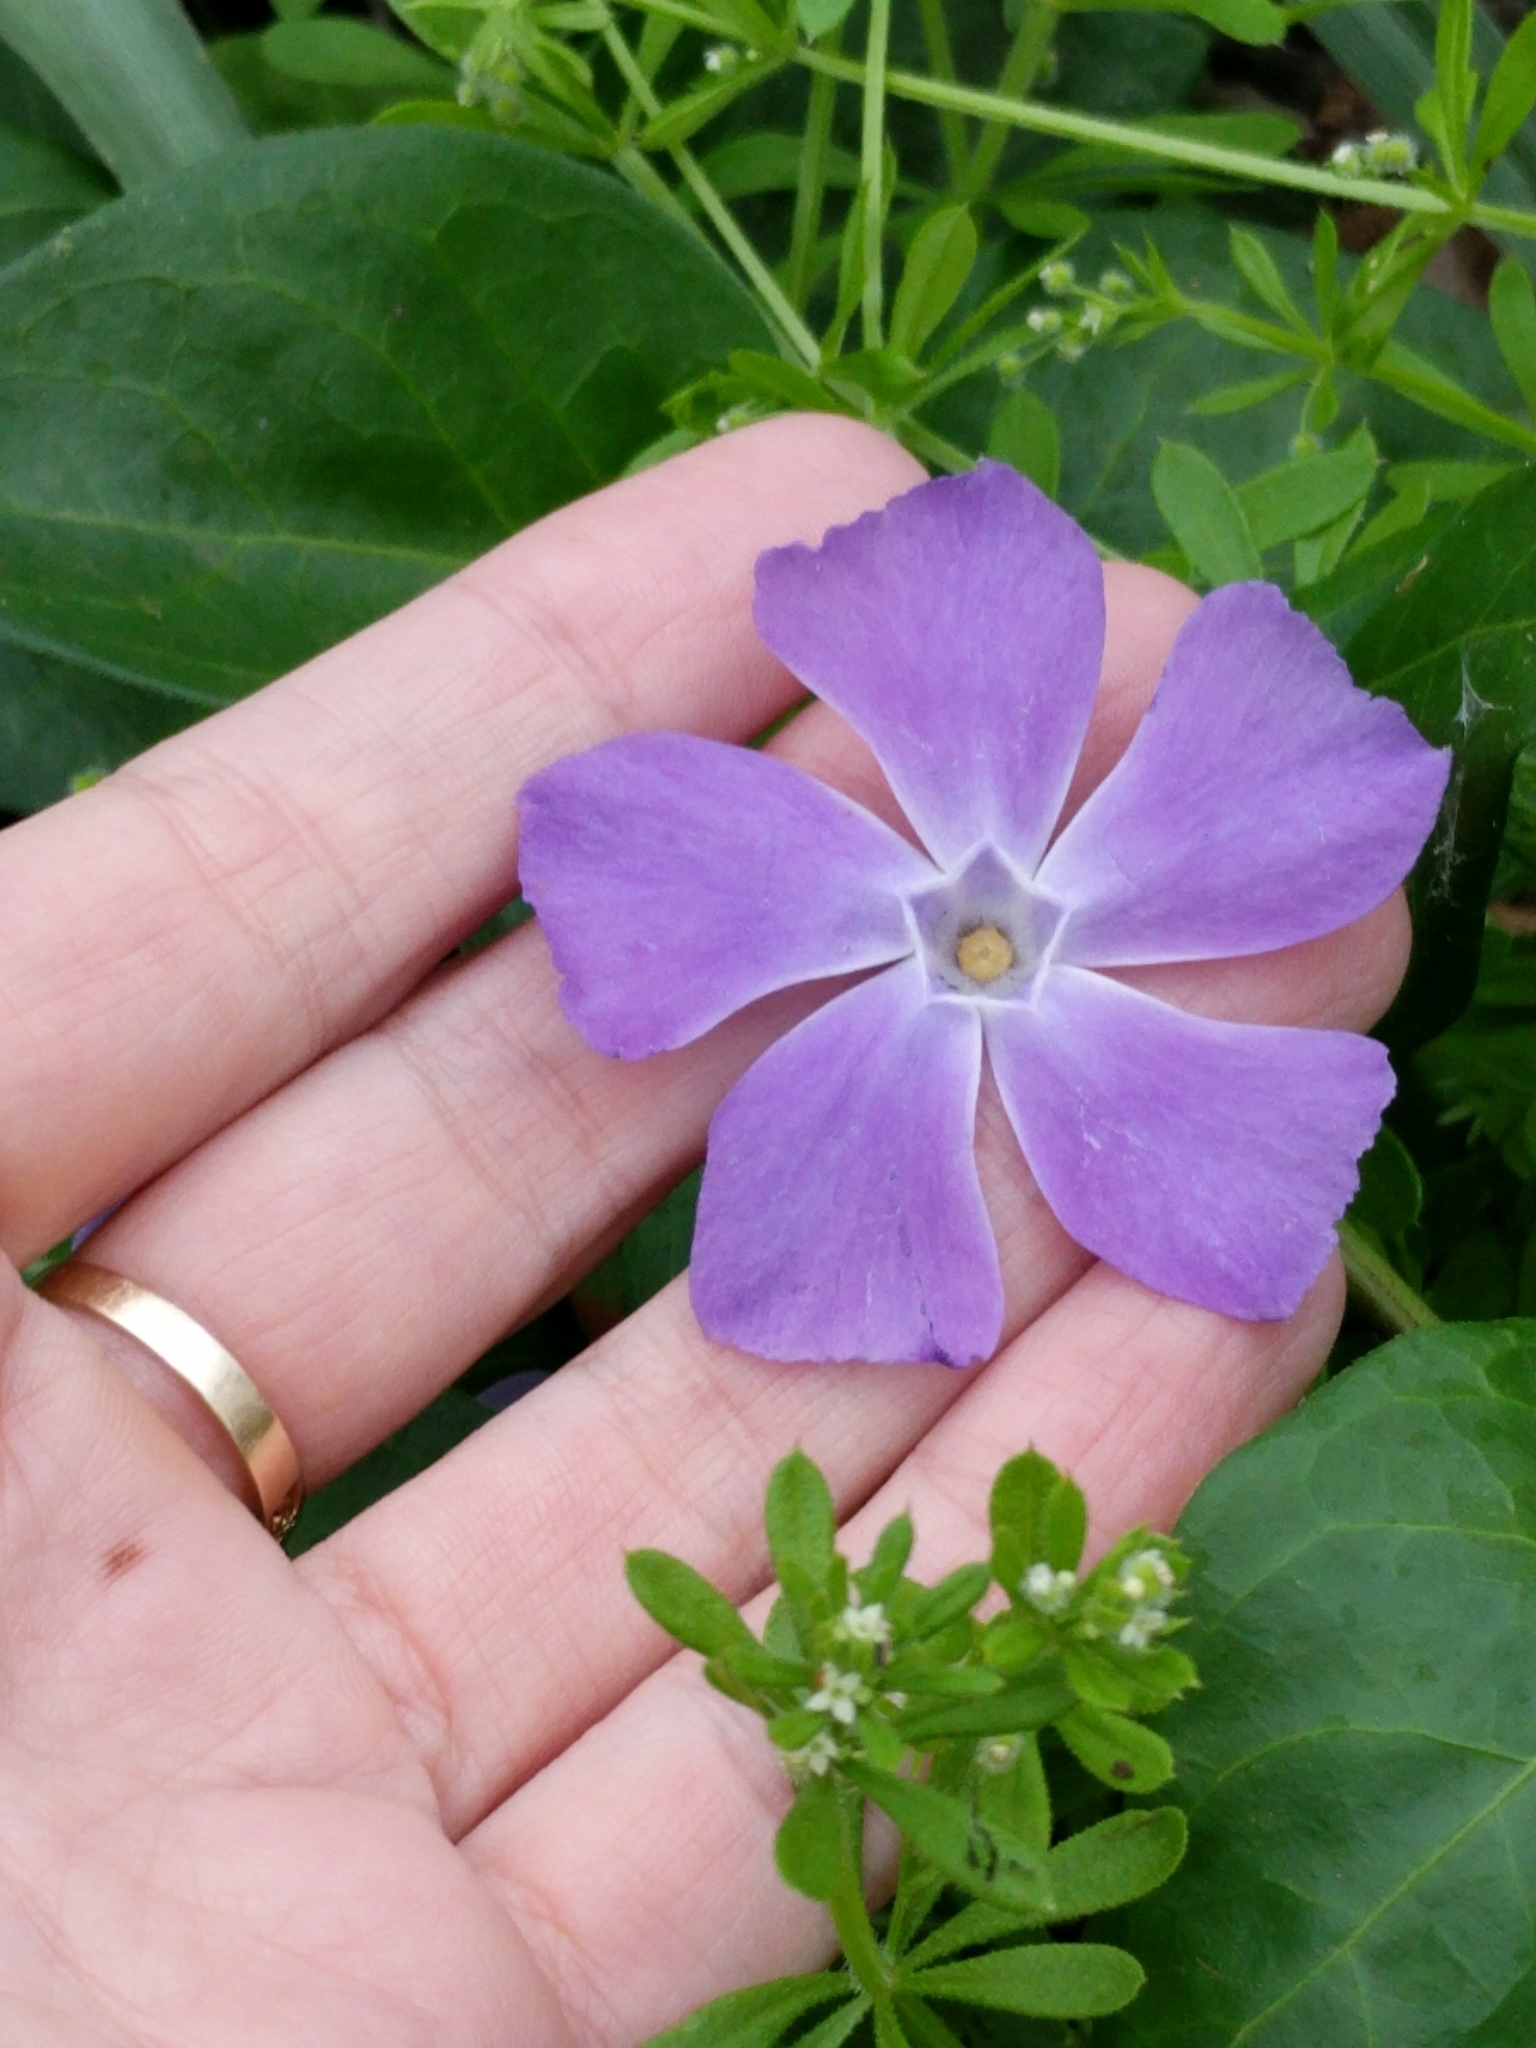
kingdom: Plantae
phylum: Tracheophyta
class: Magnoliopsida
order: Gentianales
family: Apocynaceae
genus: Vinca
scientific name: Vinca major
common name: Greater periwinkle
